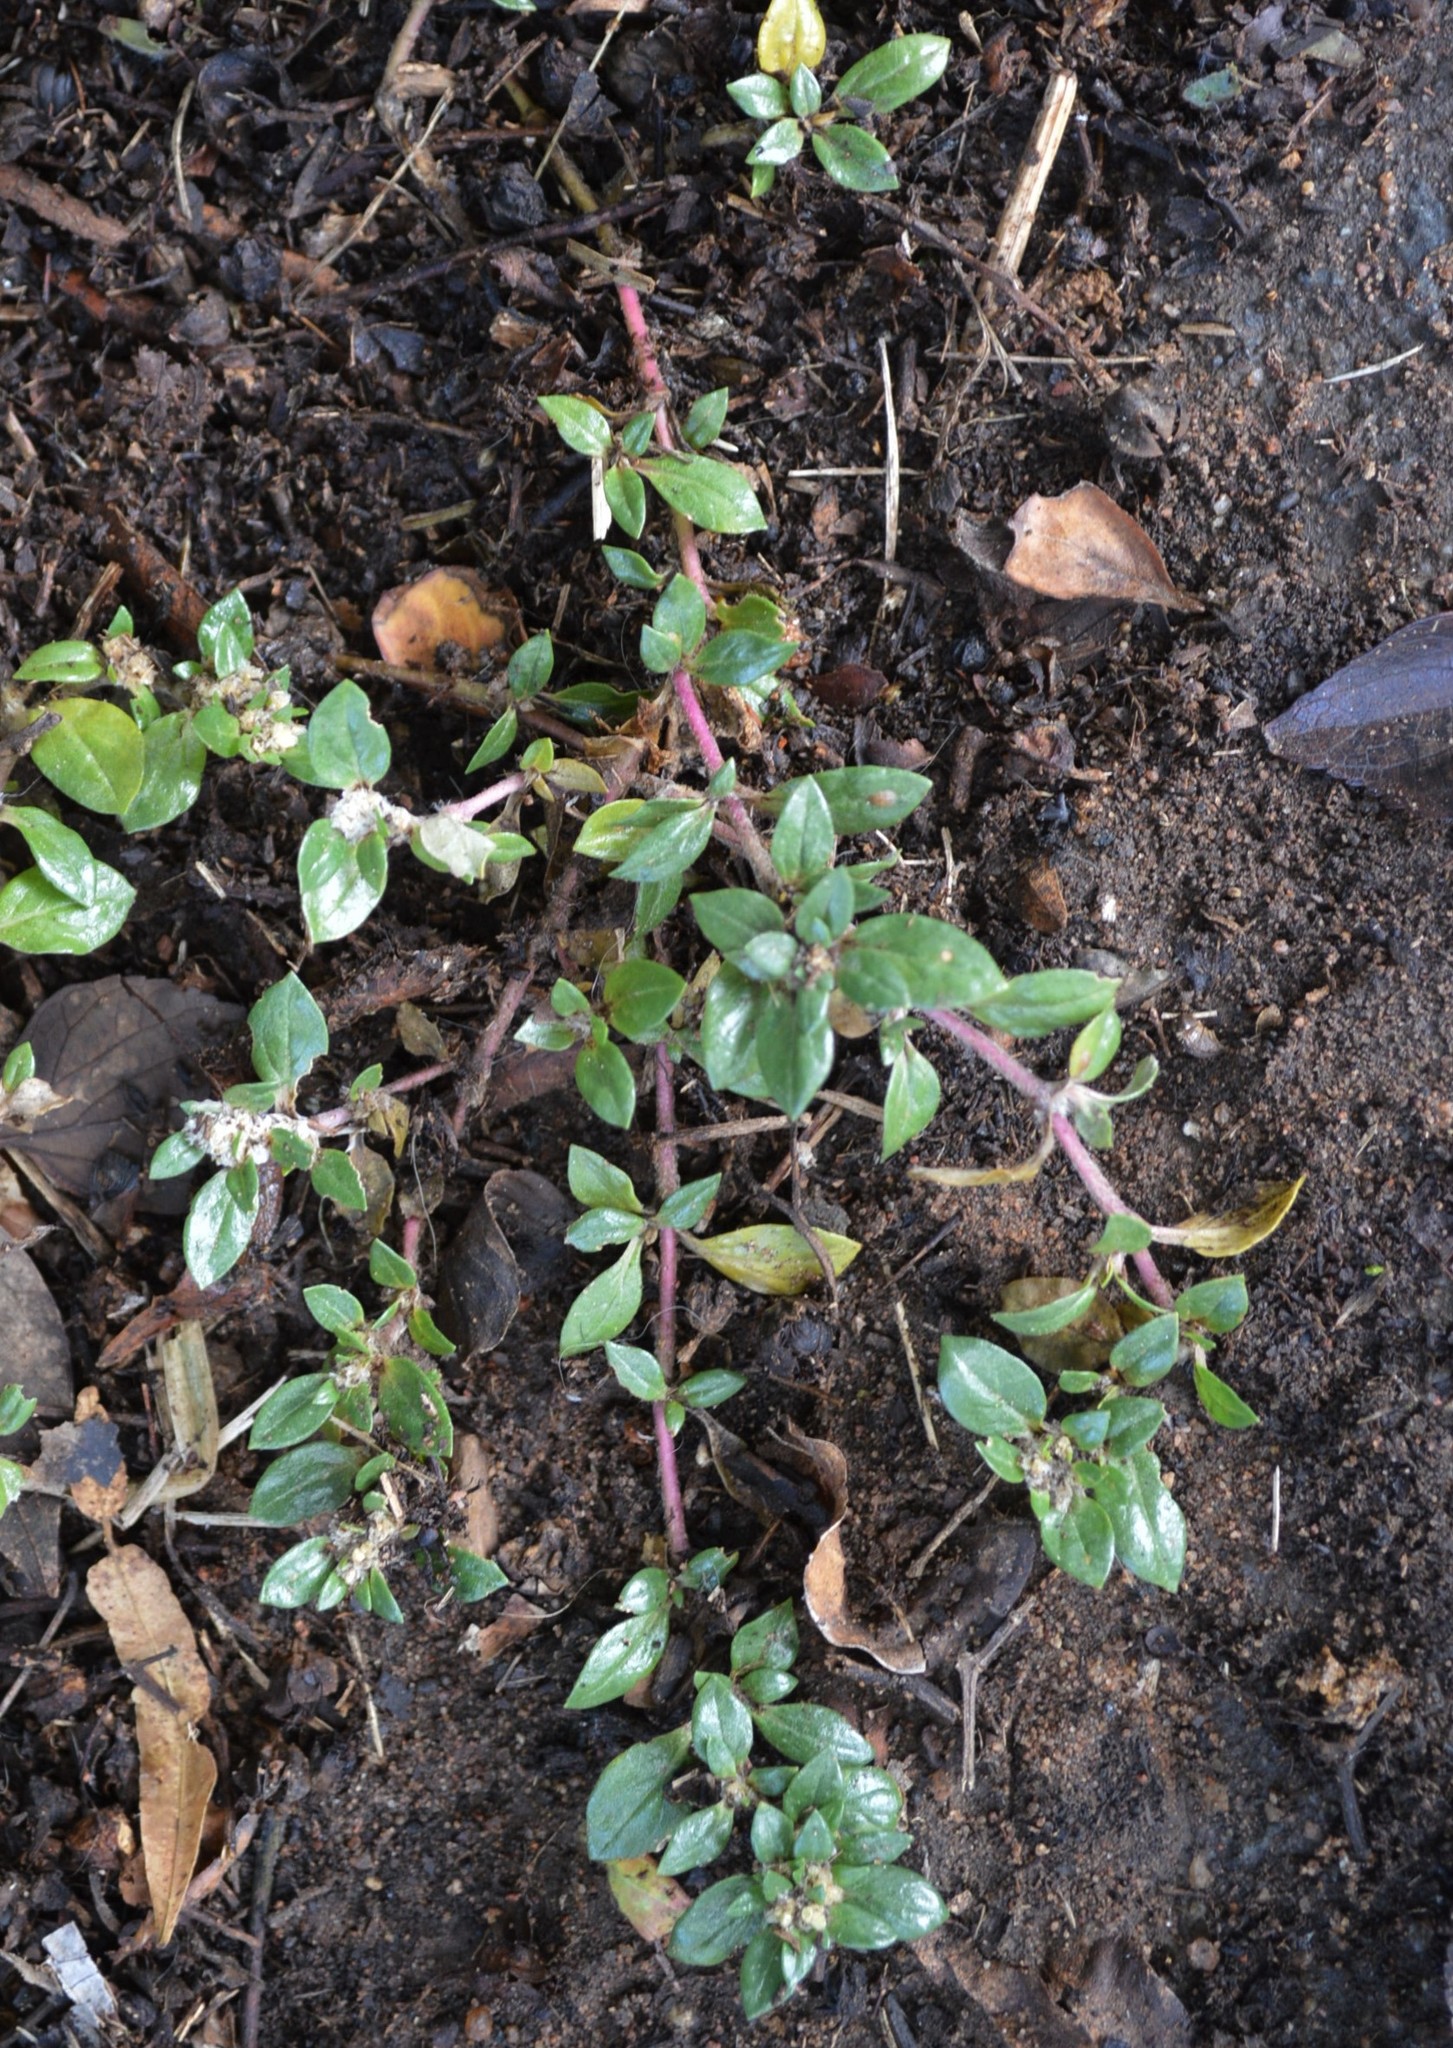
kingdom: Plantae
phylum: Tracheophyta
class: Magnoliopsida
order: Caryophyllales
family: Amaranthaceae
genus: Guilleminea
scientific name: Guilleminea densa
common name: Small matweed
